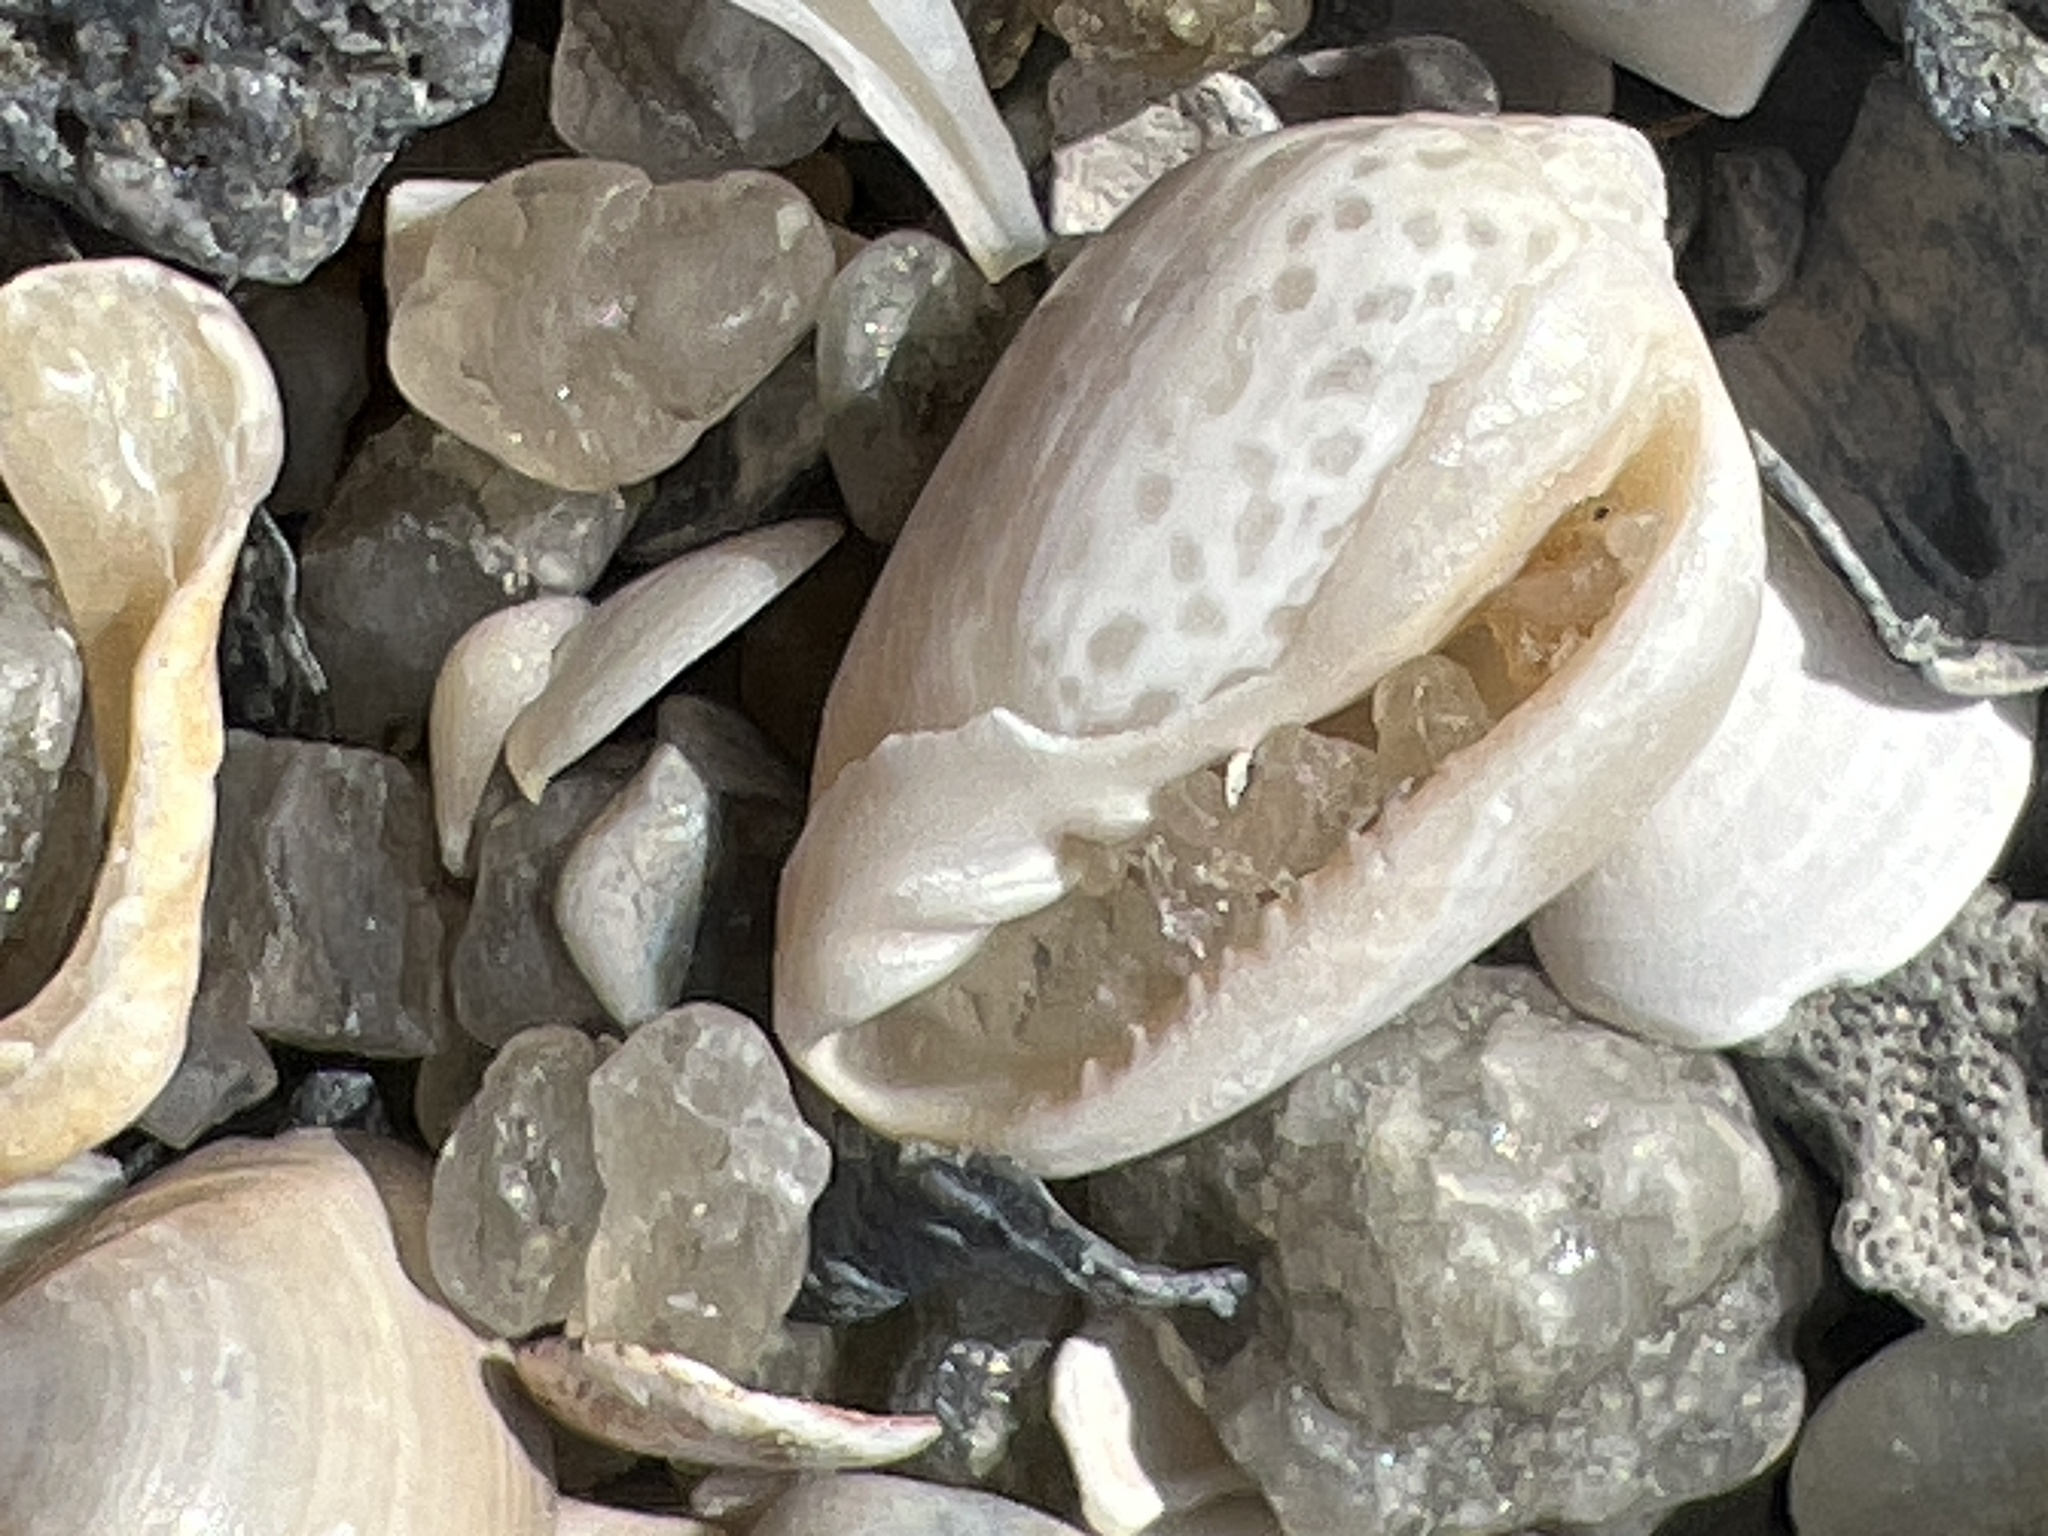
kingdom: Animalia
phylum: Mollusca
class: Gastropoda
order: Neogastropoda
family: Marginellidae
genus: Prunum
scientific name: Prunum apicinum
